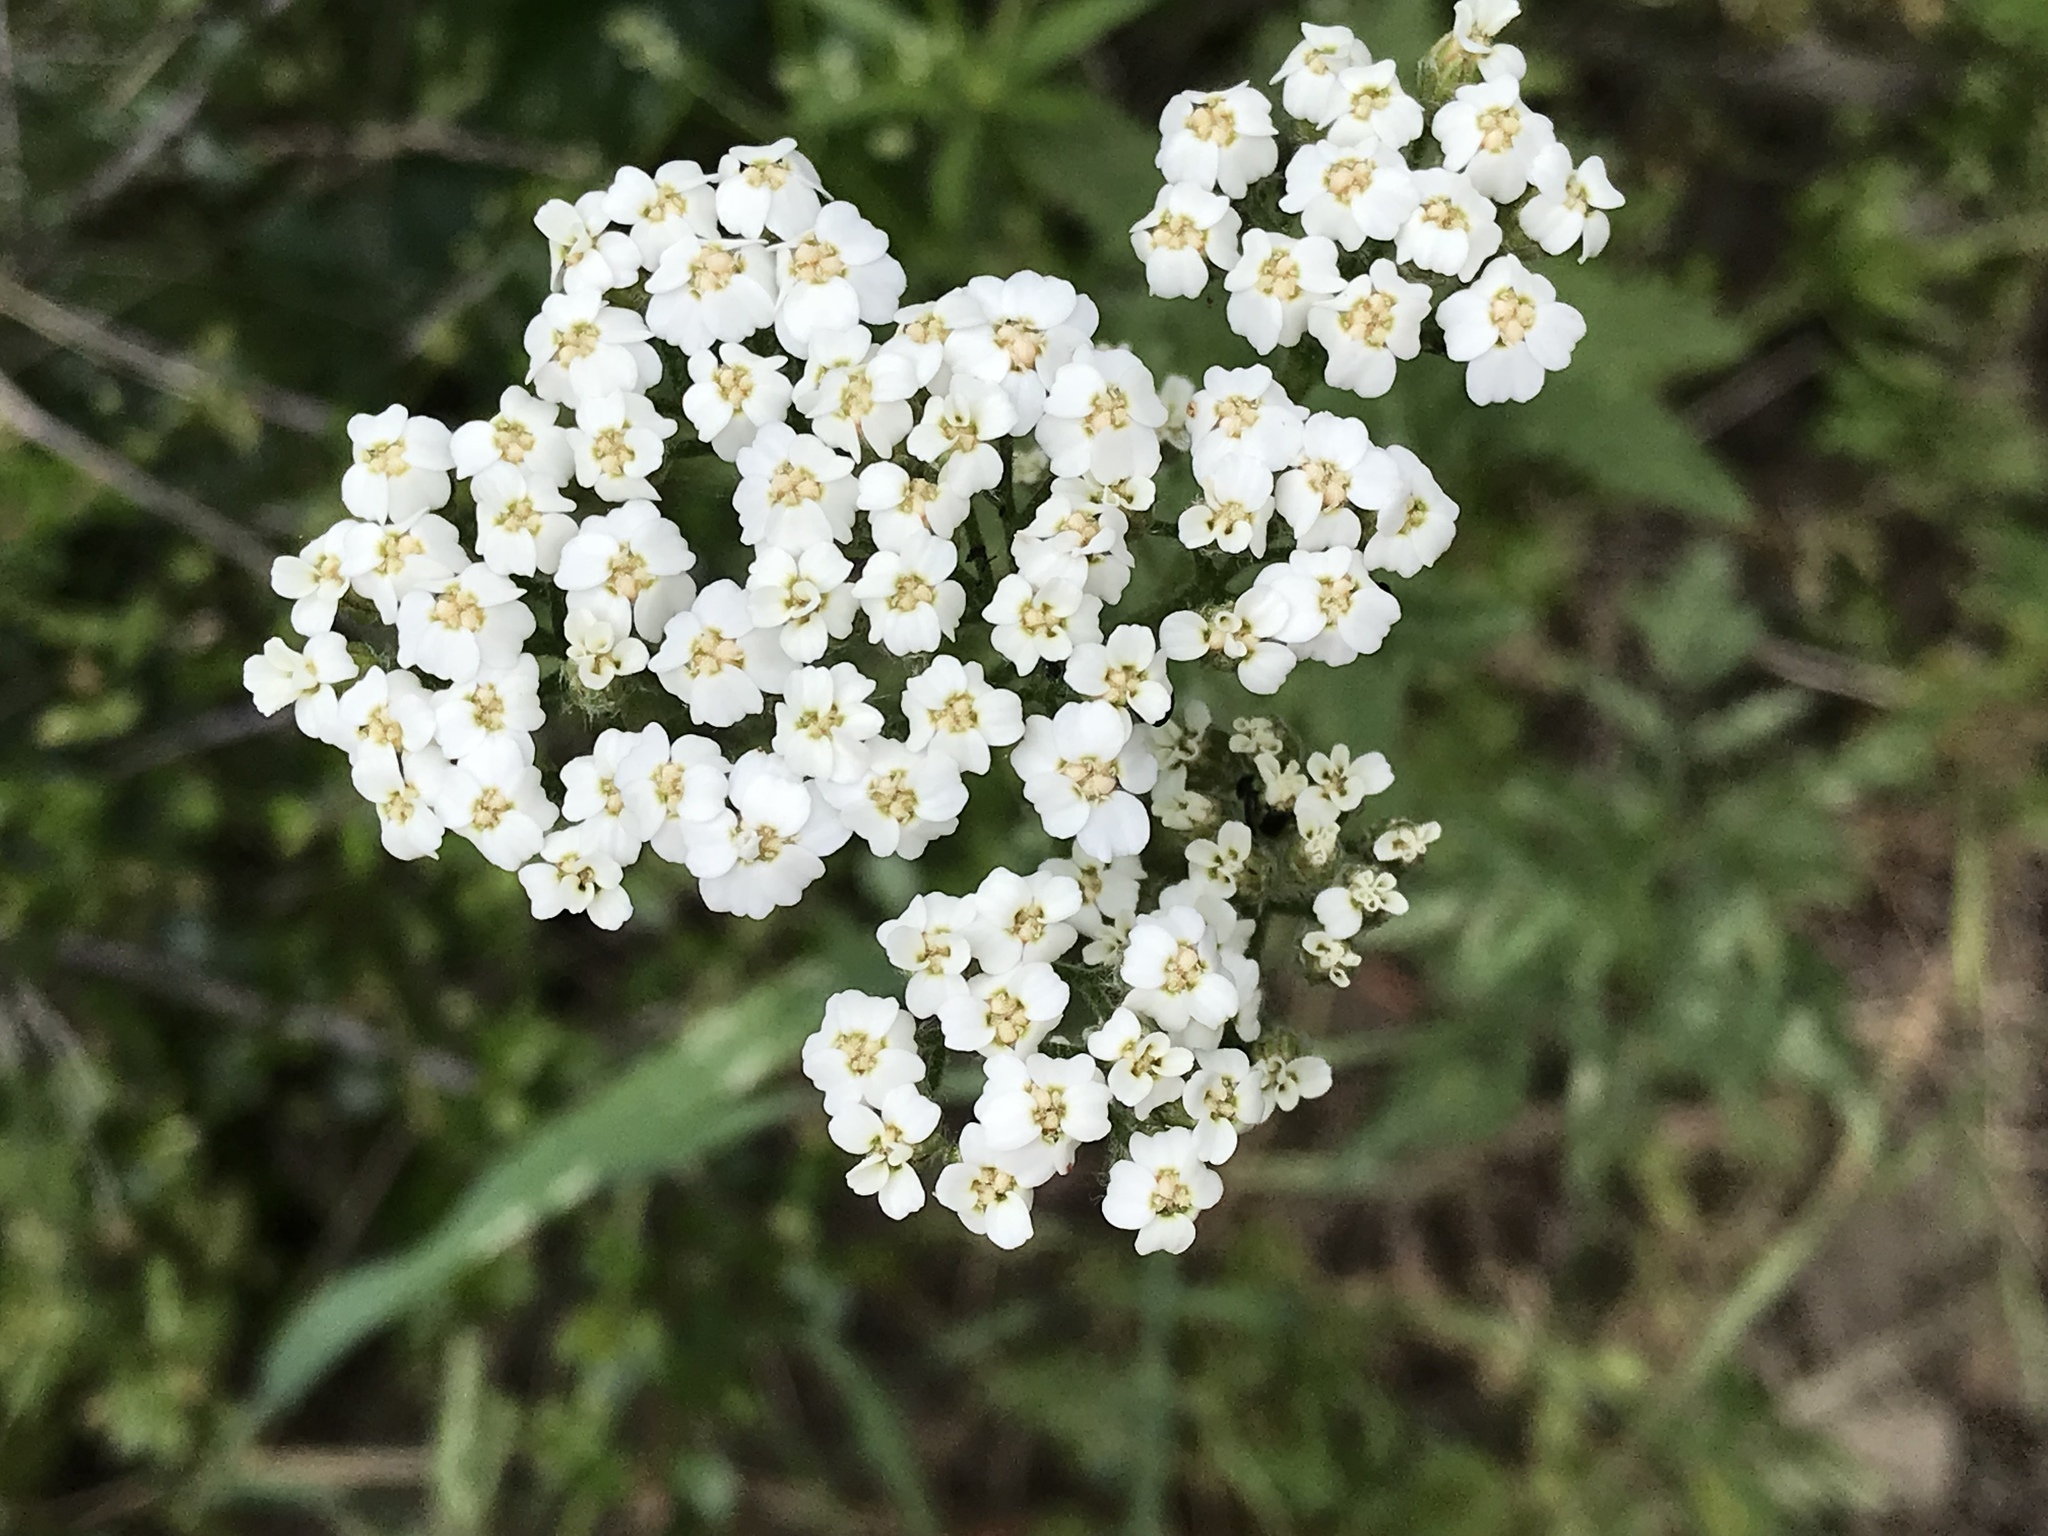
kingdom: Plantae
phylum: Tracheophyta
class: Magnoliopsida
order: Asterales
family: Asteraceae
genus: Achillea
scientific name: Achillea millefolium
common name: Yarrow
